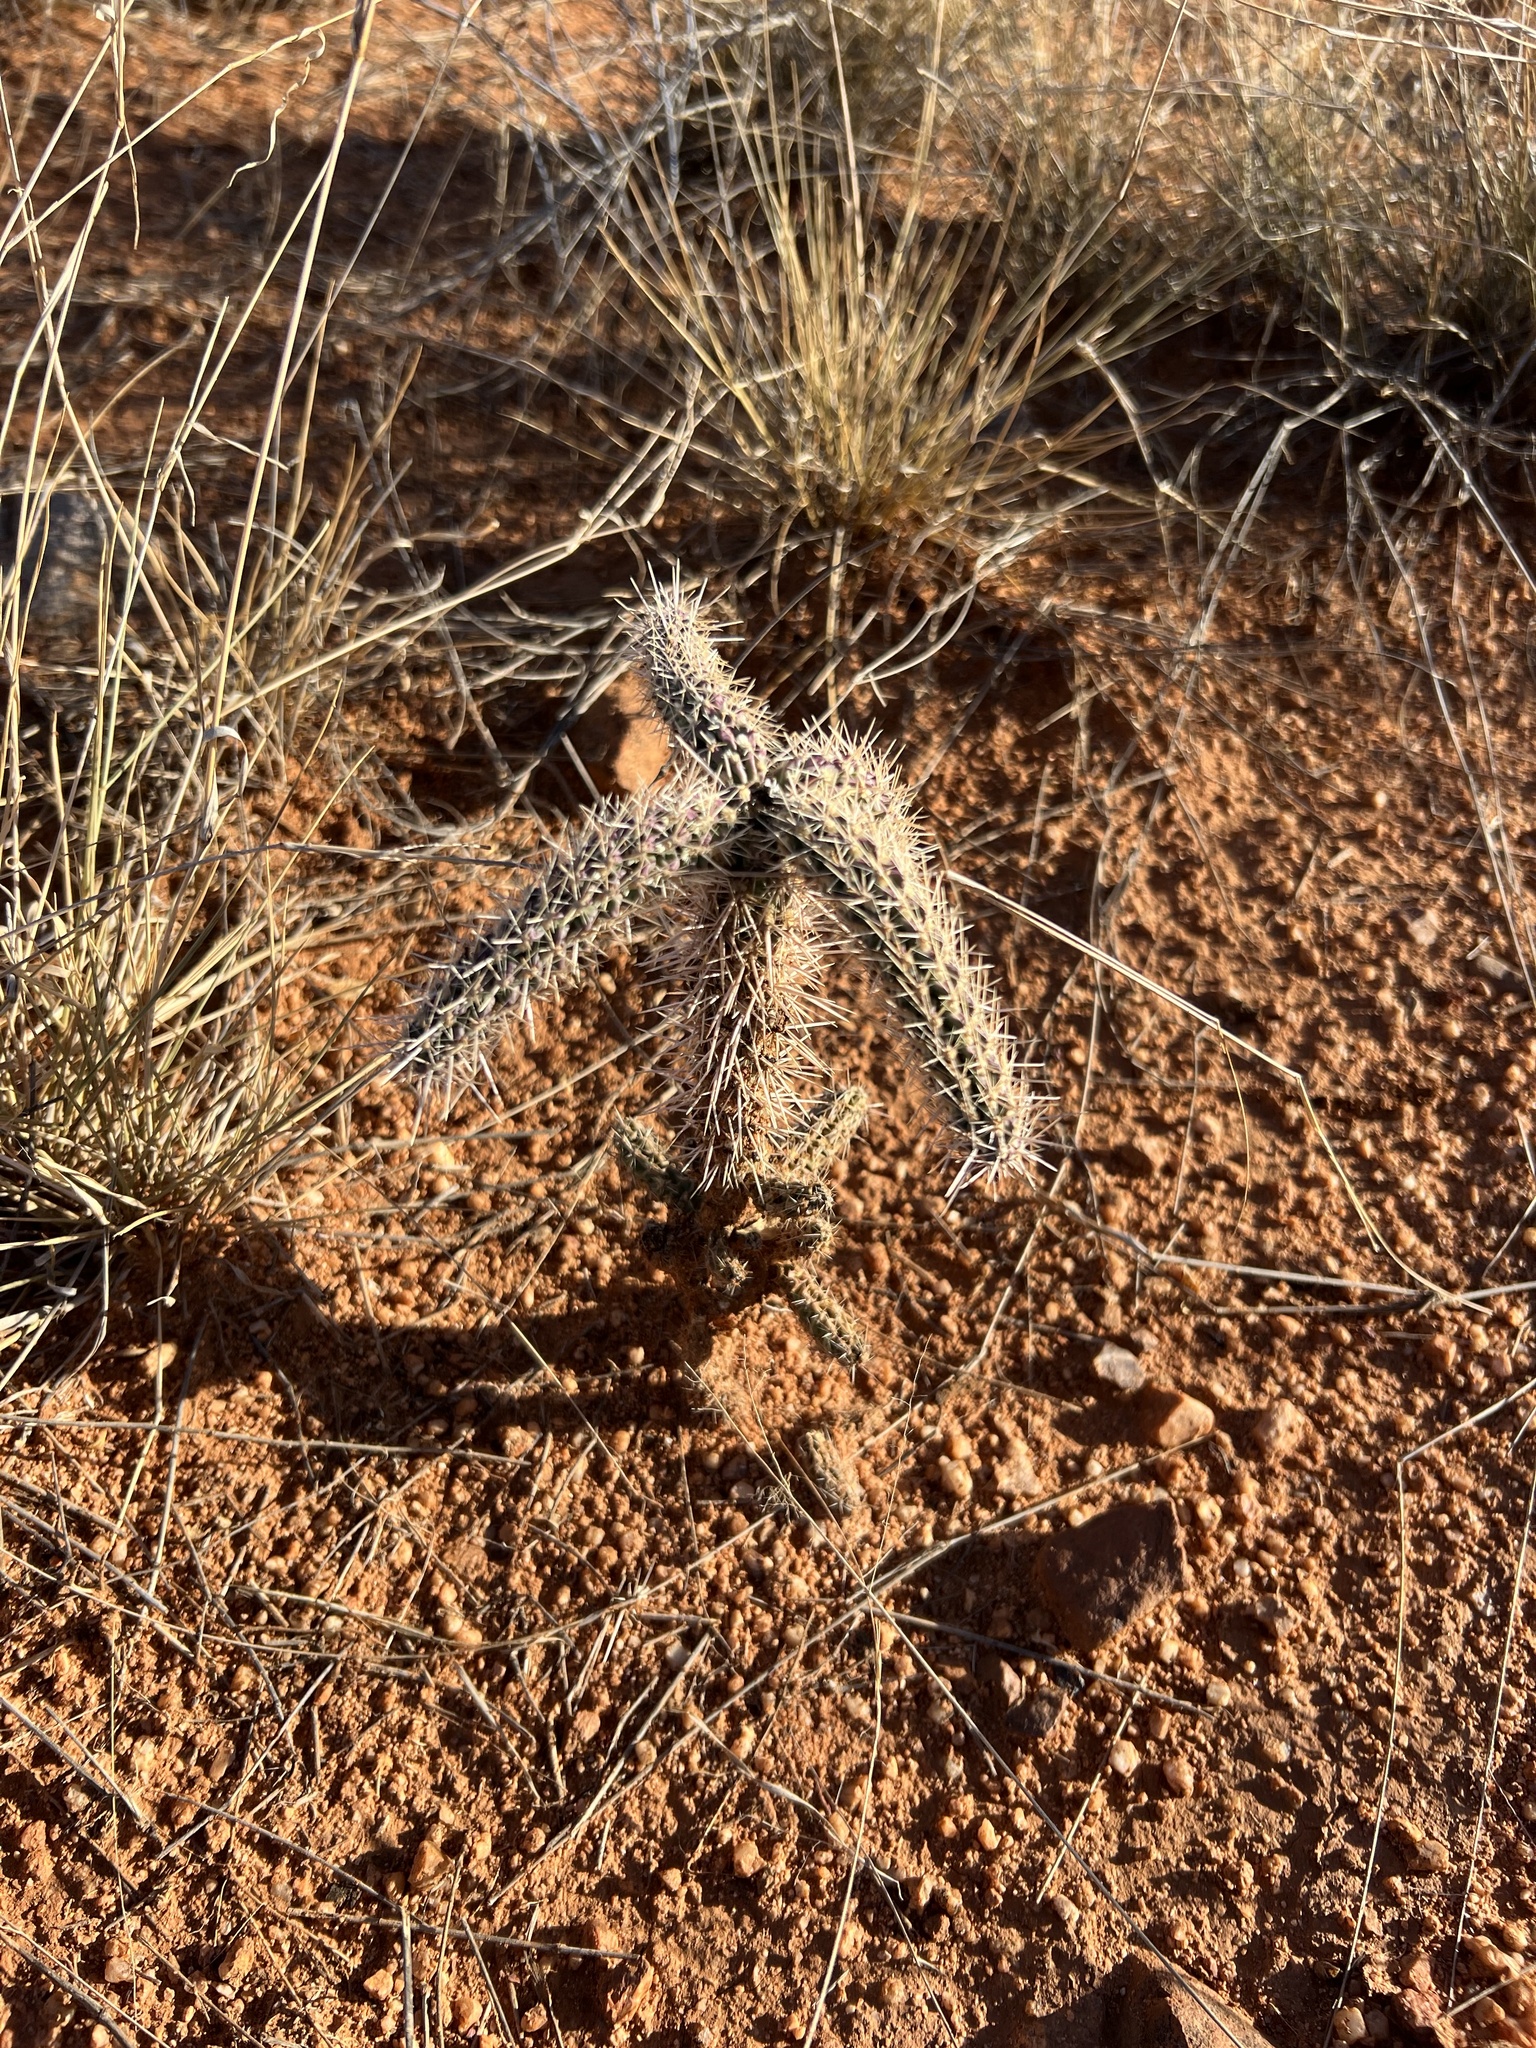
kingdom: Plantae
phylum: Tracheophyta
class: Magnoliopsida
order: Caryophyllales
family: Cactaceae
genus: Cylindropuntia
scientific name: Cylindropuntia imbricata
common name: Candelabrum cactus
